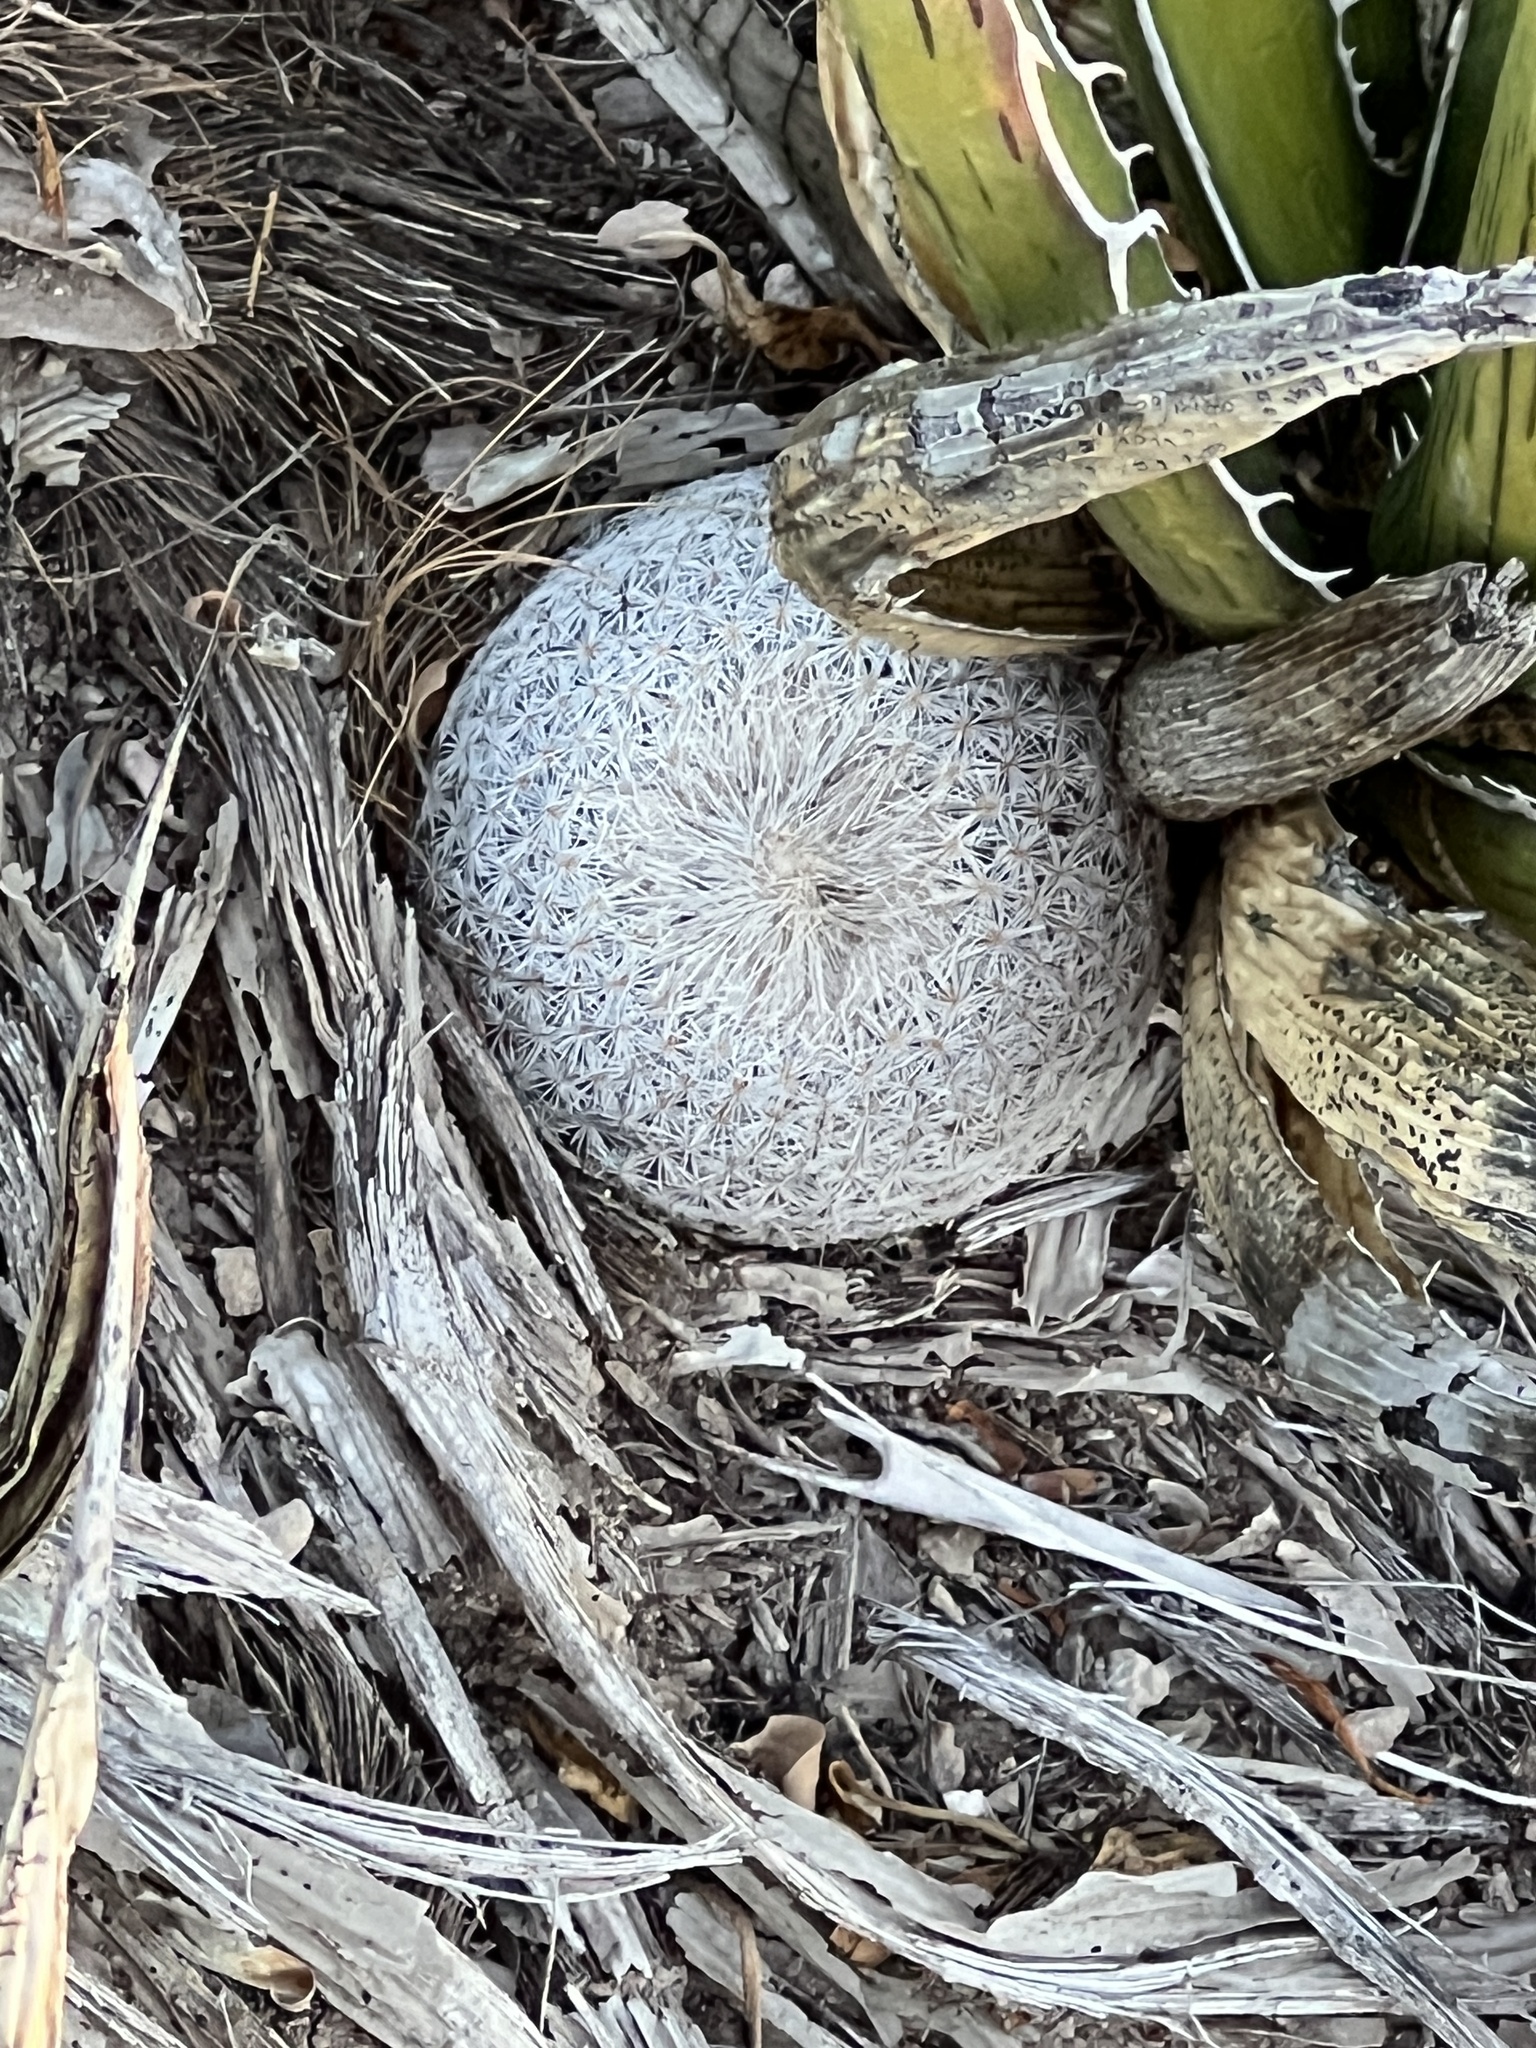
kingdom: Plantae
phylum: Tracheophyta
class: Magnoliopsida
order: Caryophyllales
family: Cactaceae
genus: Epithelantha
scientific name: Epithelantha micromeris
